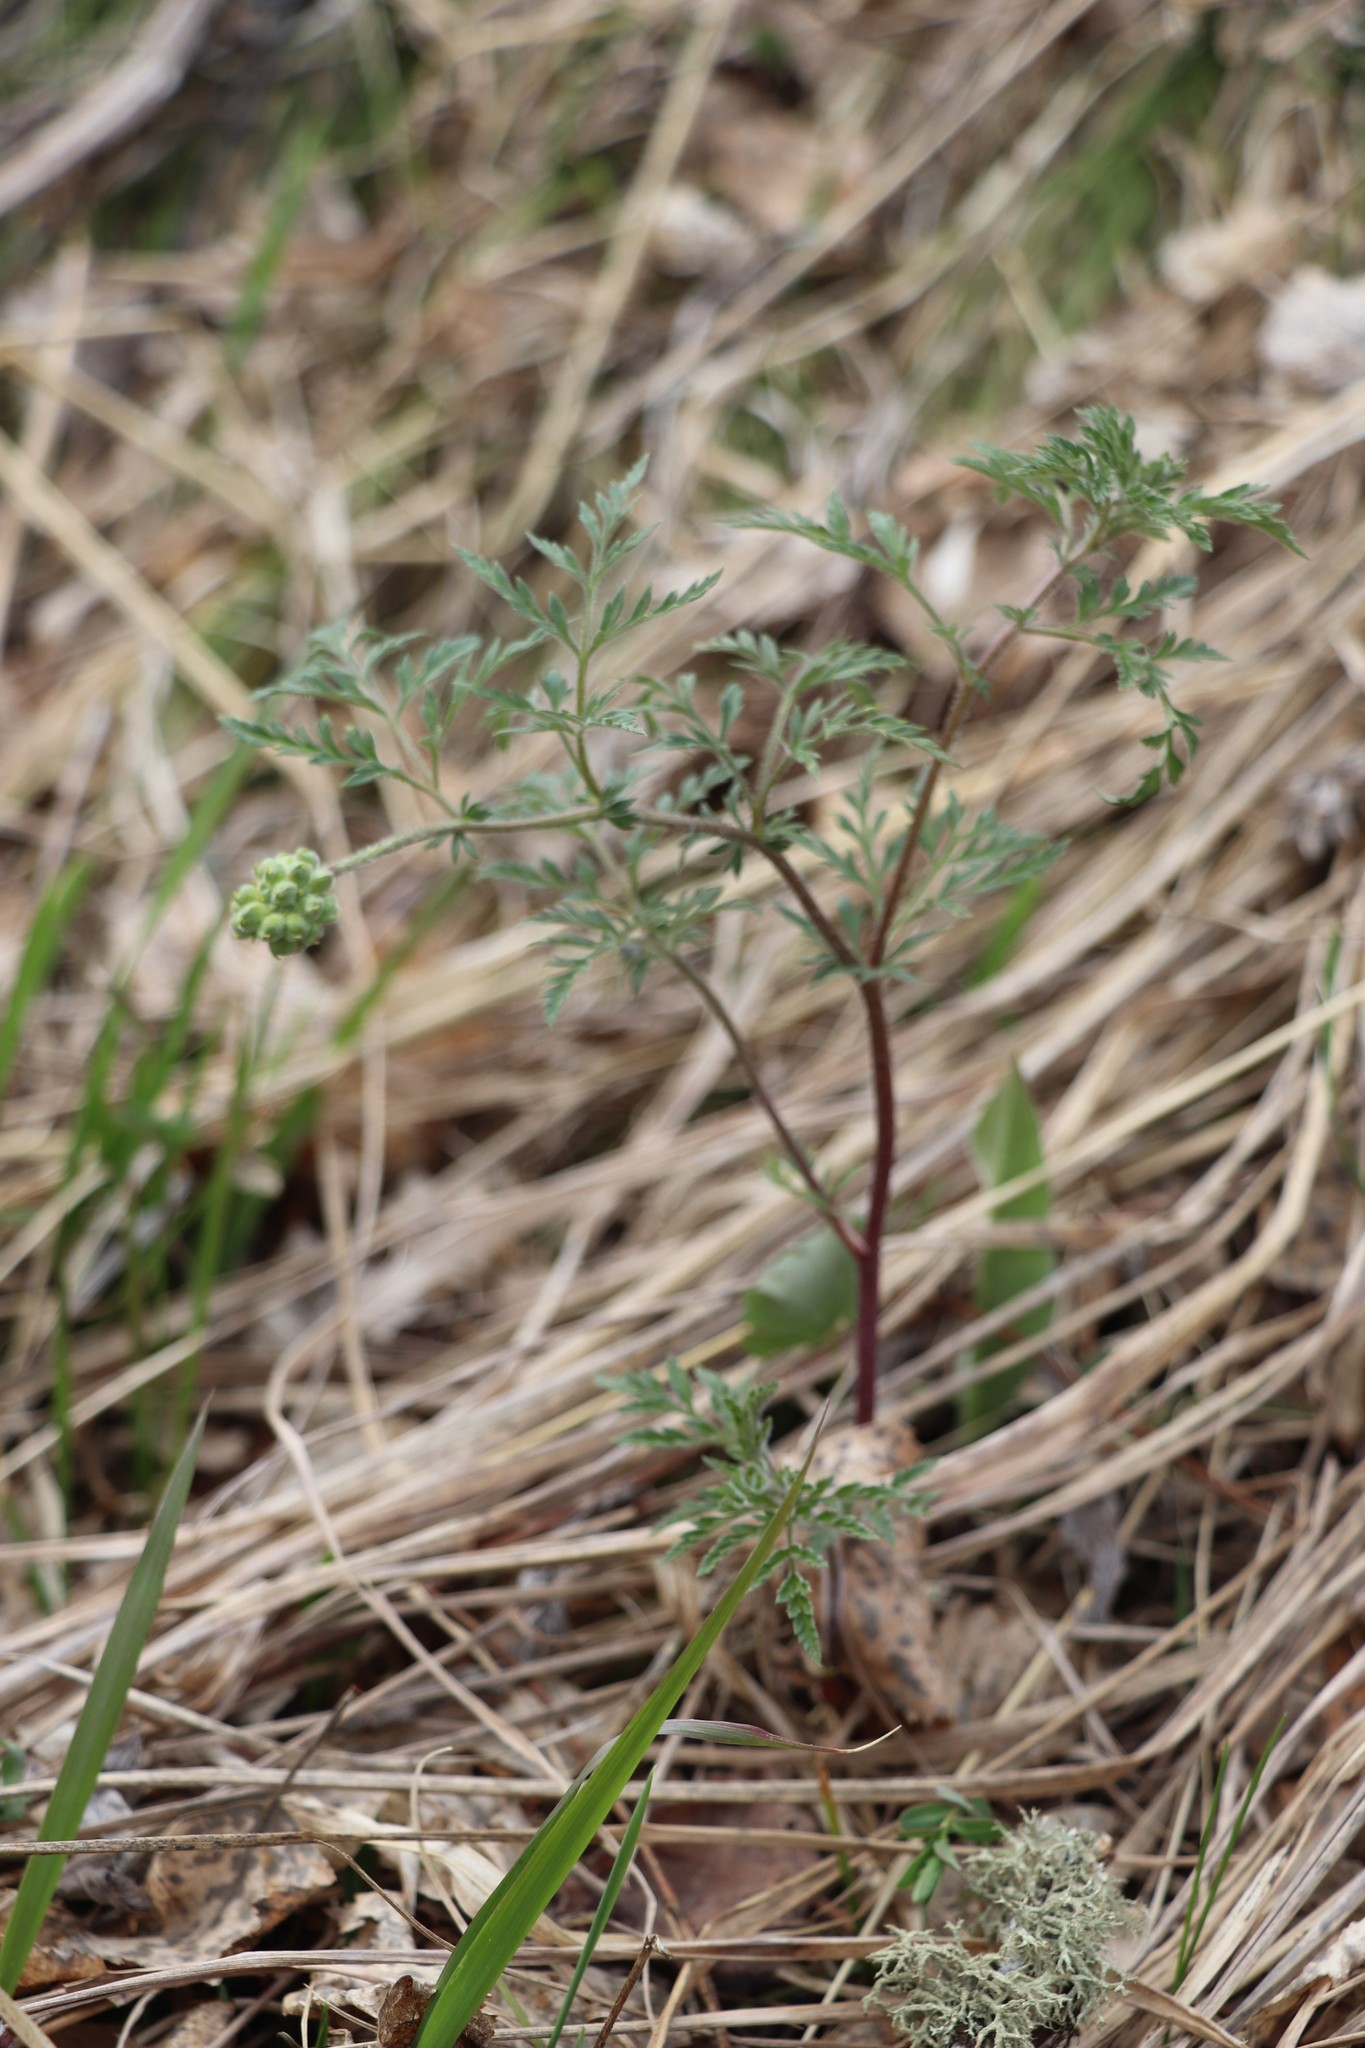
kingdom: Plantae
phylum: Tracheophyta
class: Magnoliopsida
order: Ranunculales
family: Ranunculaceae
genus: Adonis
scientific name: Adonis villosa
